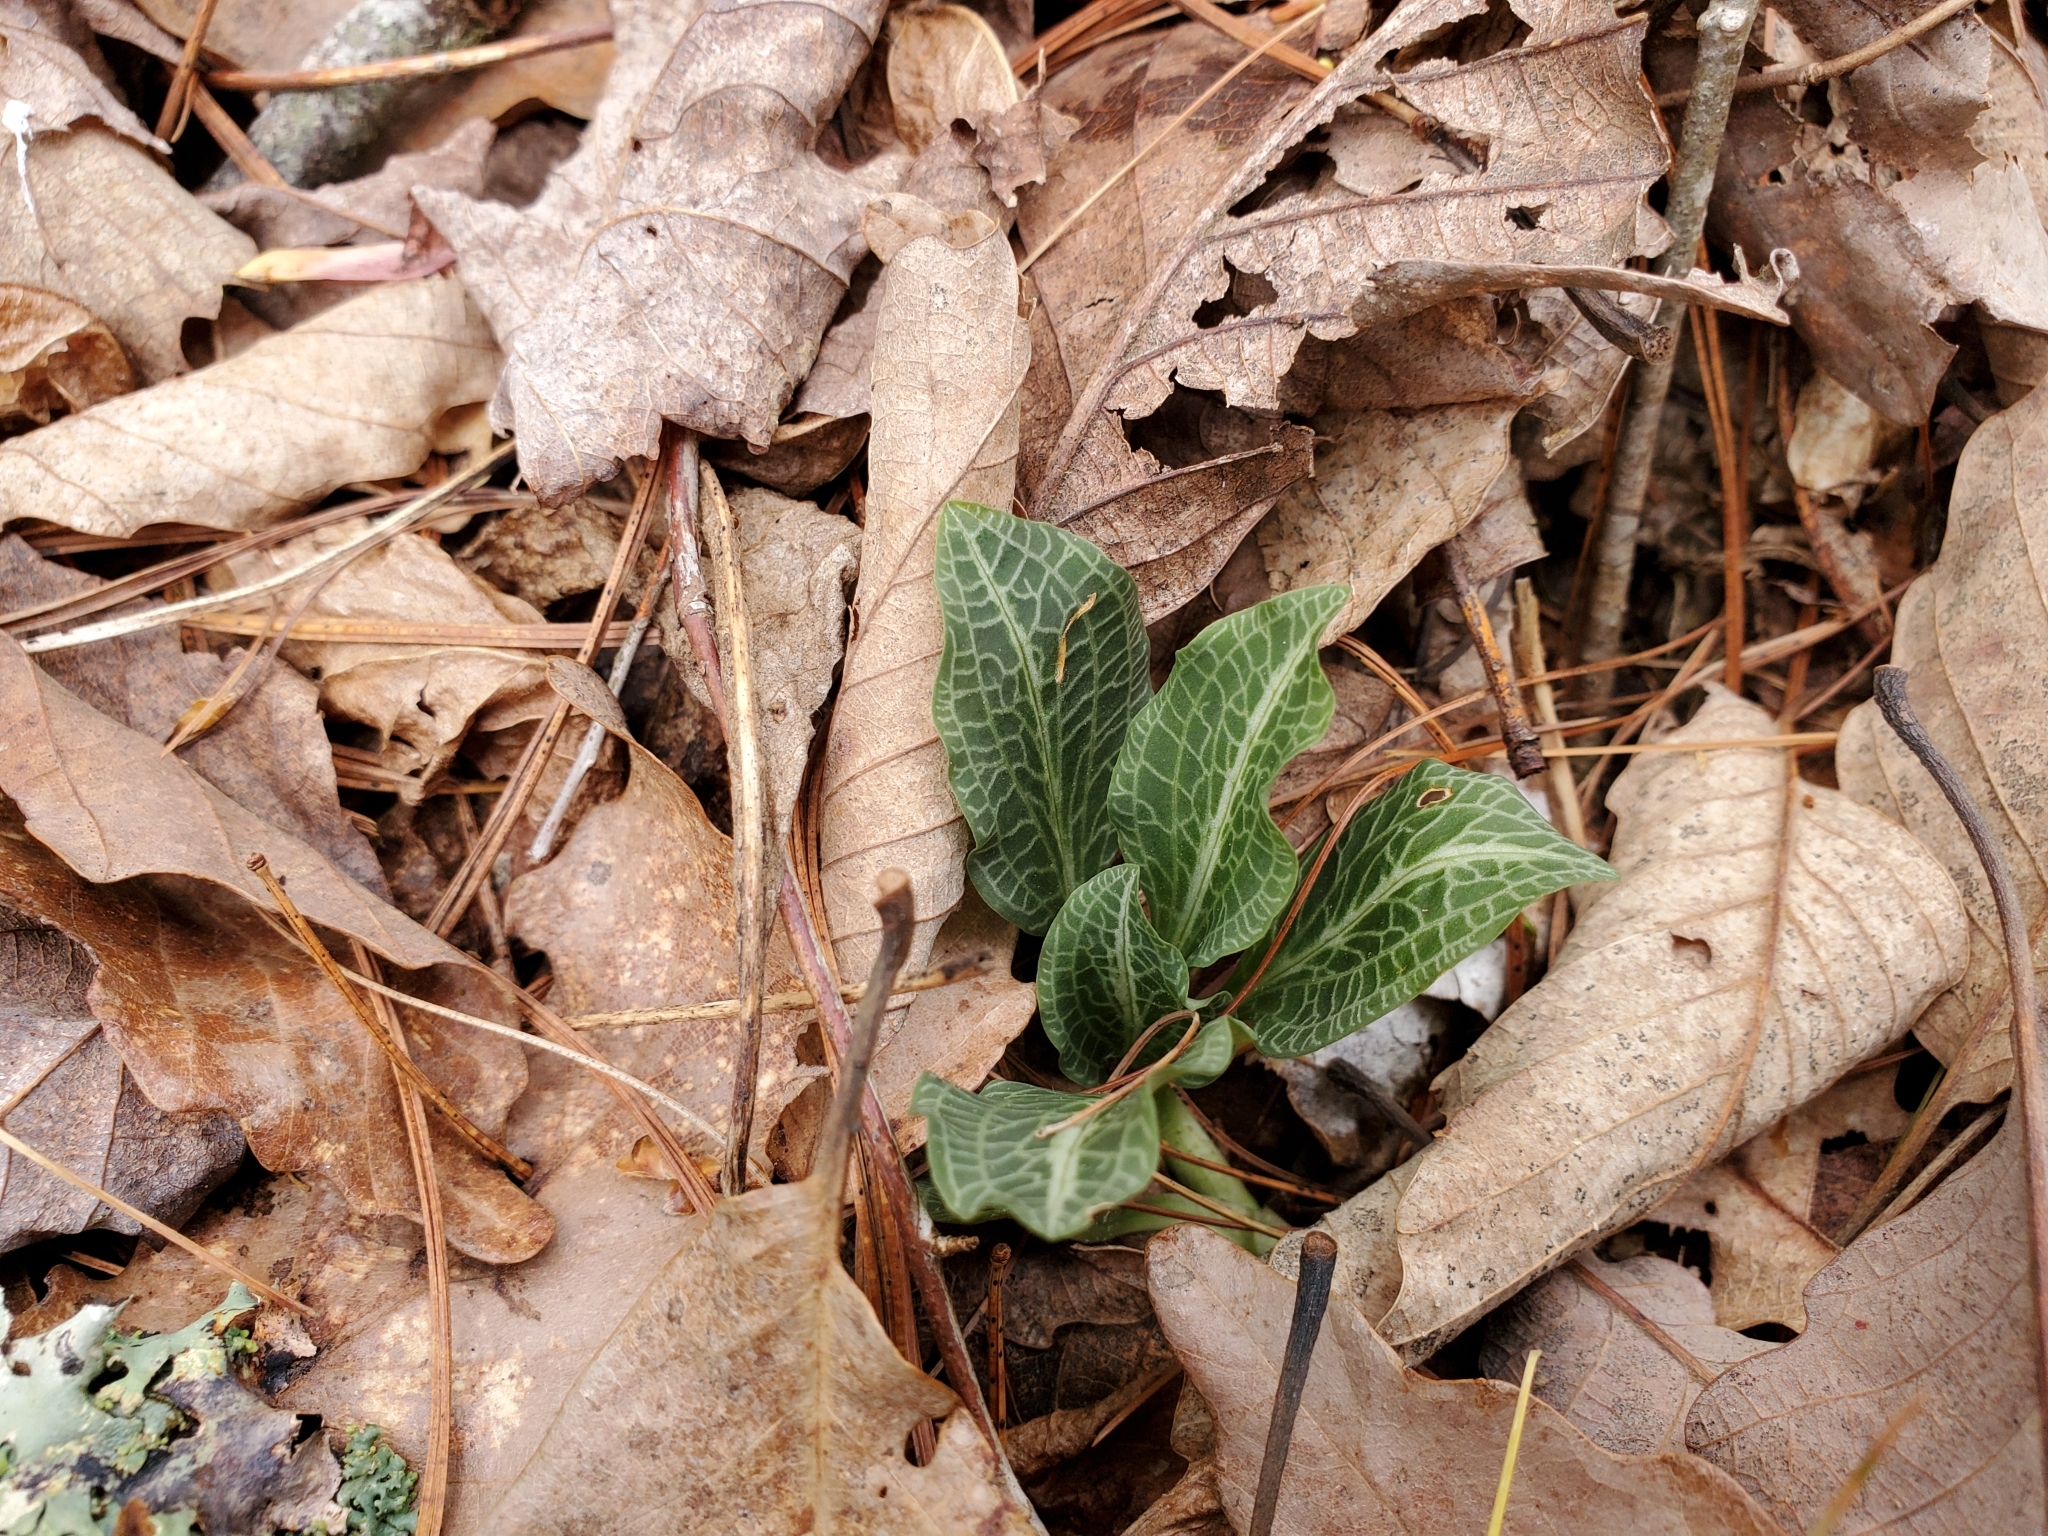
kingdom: Plantae
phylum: Tracheophyta
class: Liliopsida
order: Asparagales
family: Orchidaceae
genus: Goodyera
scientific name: Goodyera pubescens
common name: Downy rattlesnake-plantain
